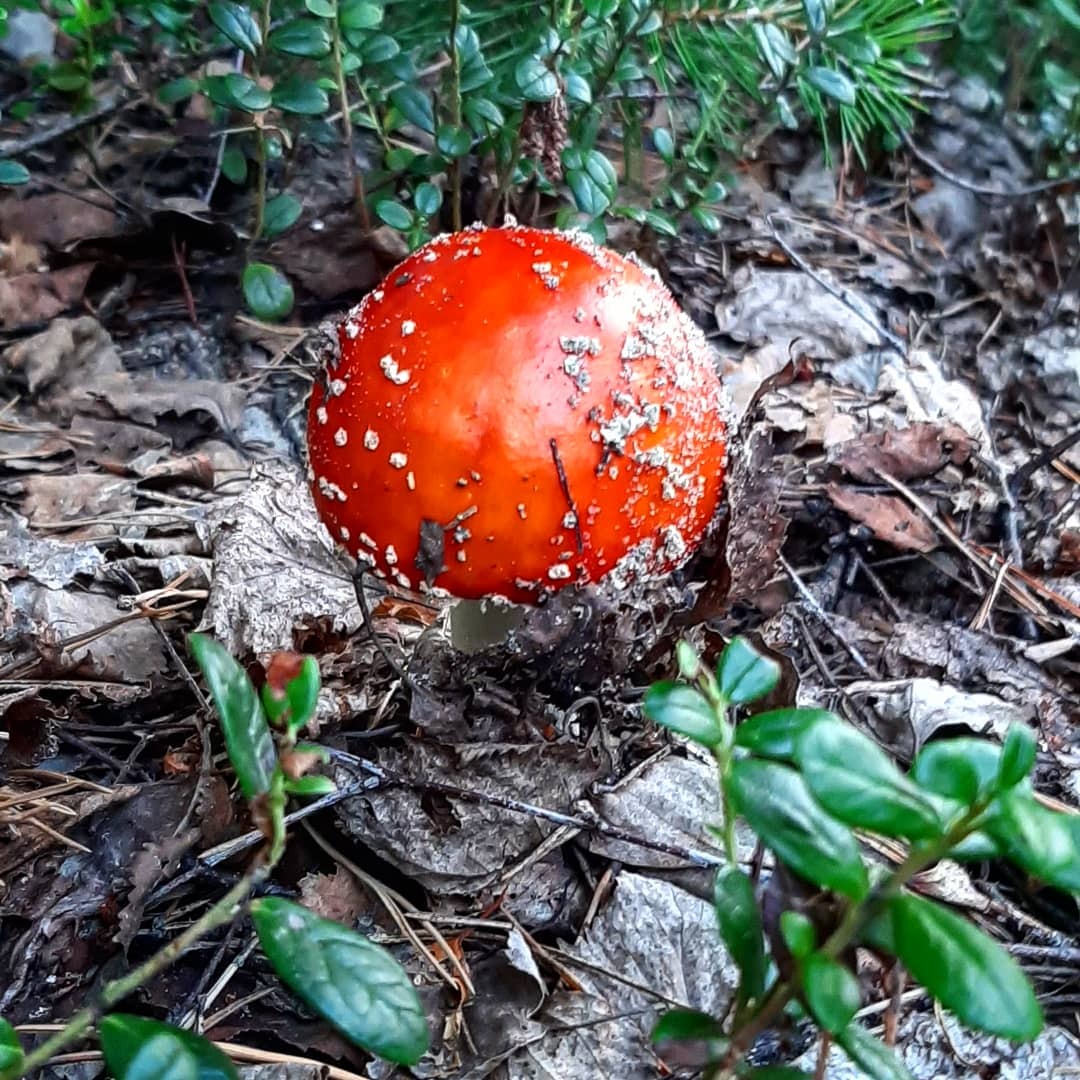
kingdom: Fungi
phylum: Basidiomycota
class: Agaricomycetes
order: Agaricales
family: Amanitaceae
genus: Amanita
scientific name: Amanita muscaria
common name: Fly agaric
